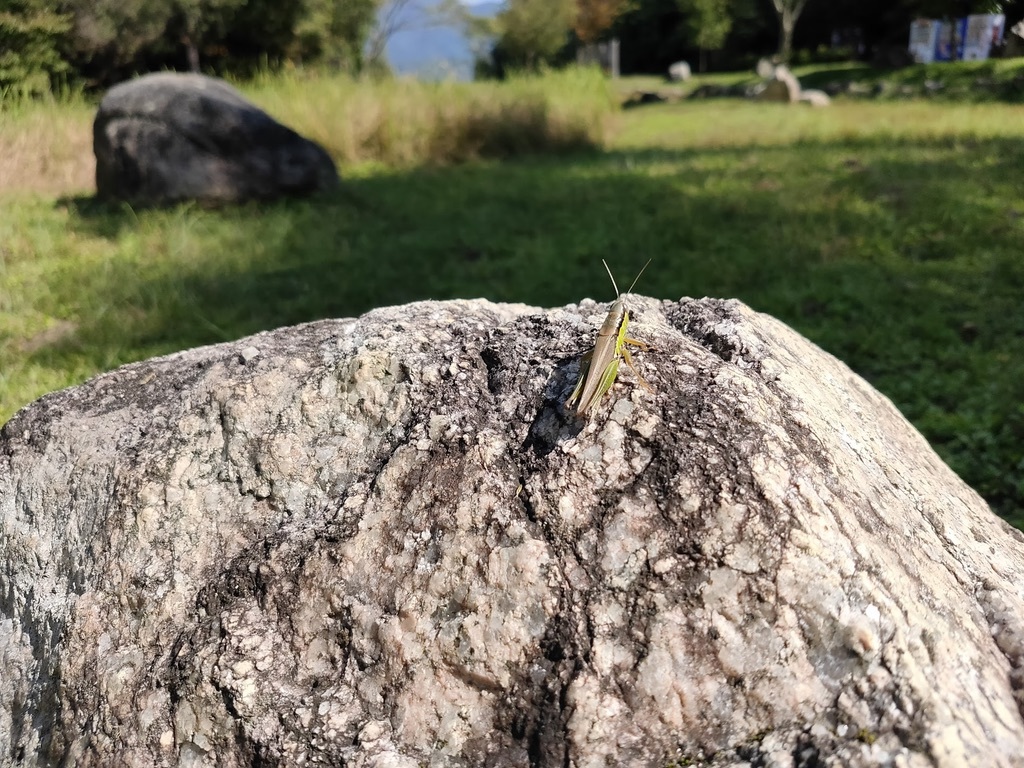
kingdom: Animalia
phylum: Arthropoda
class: Insecta
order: Orthoptera
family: Acrididae
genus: Oxya
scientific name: Oxya yezoensis
